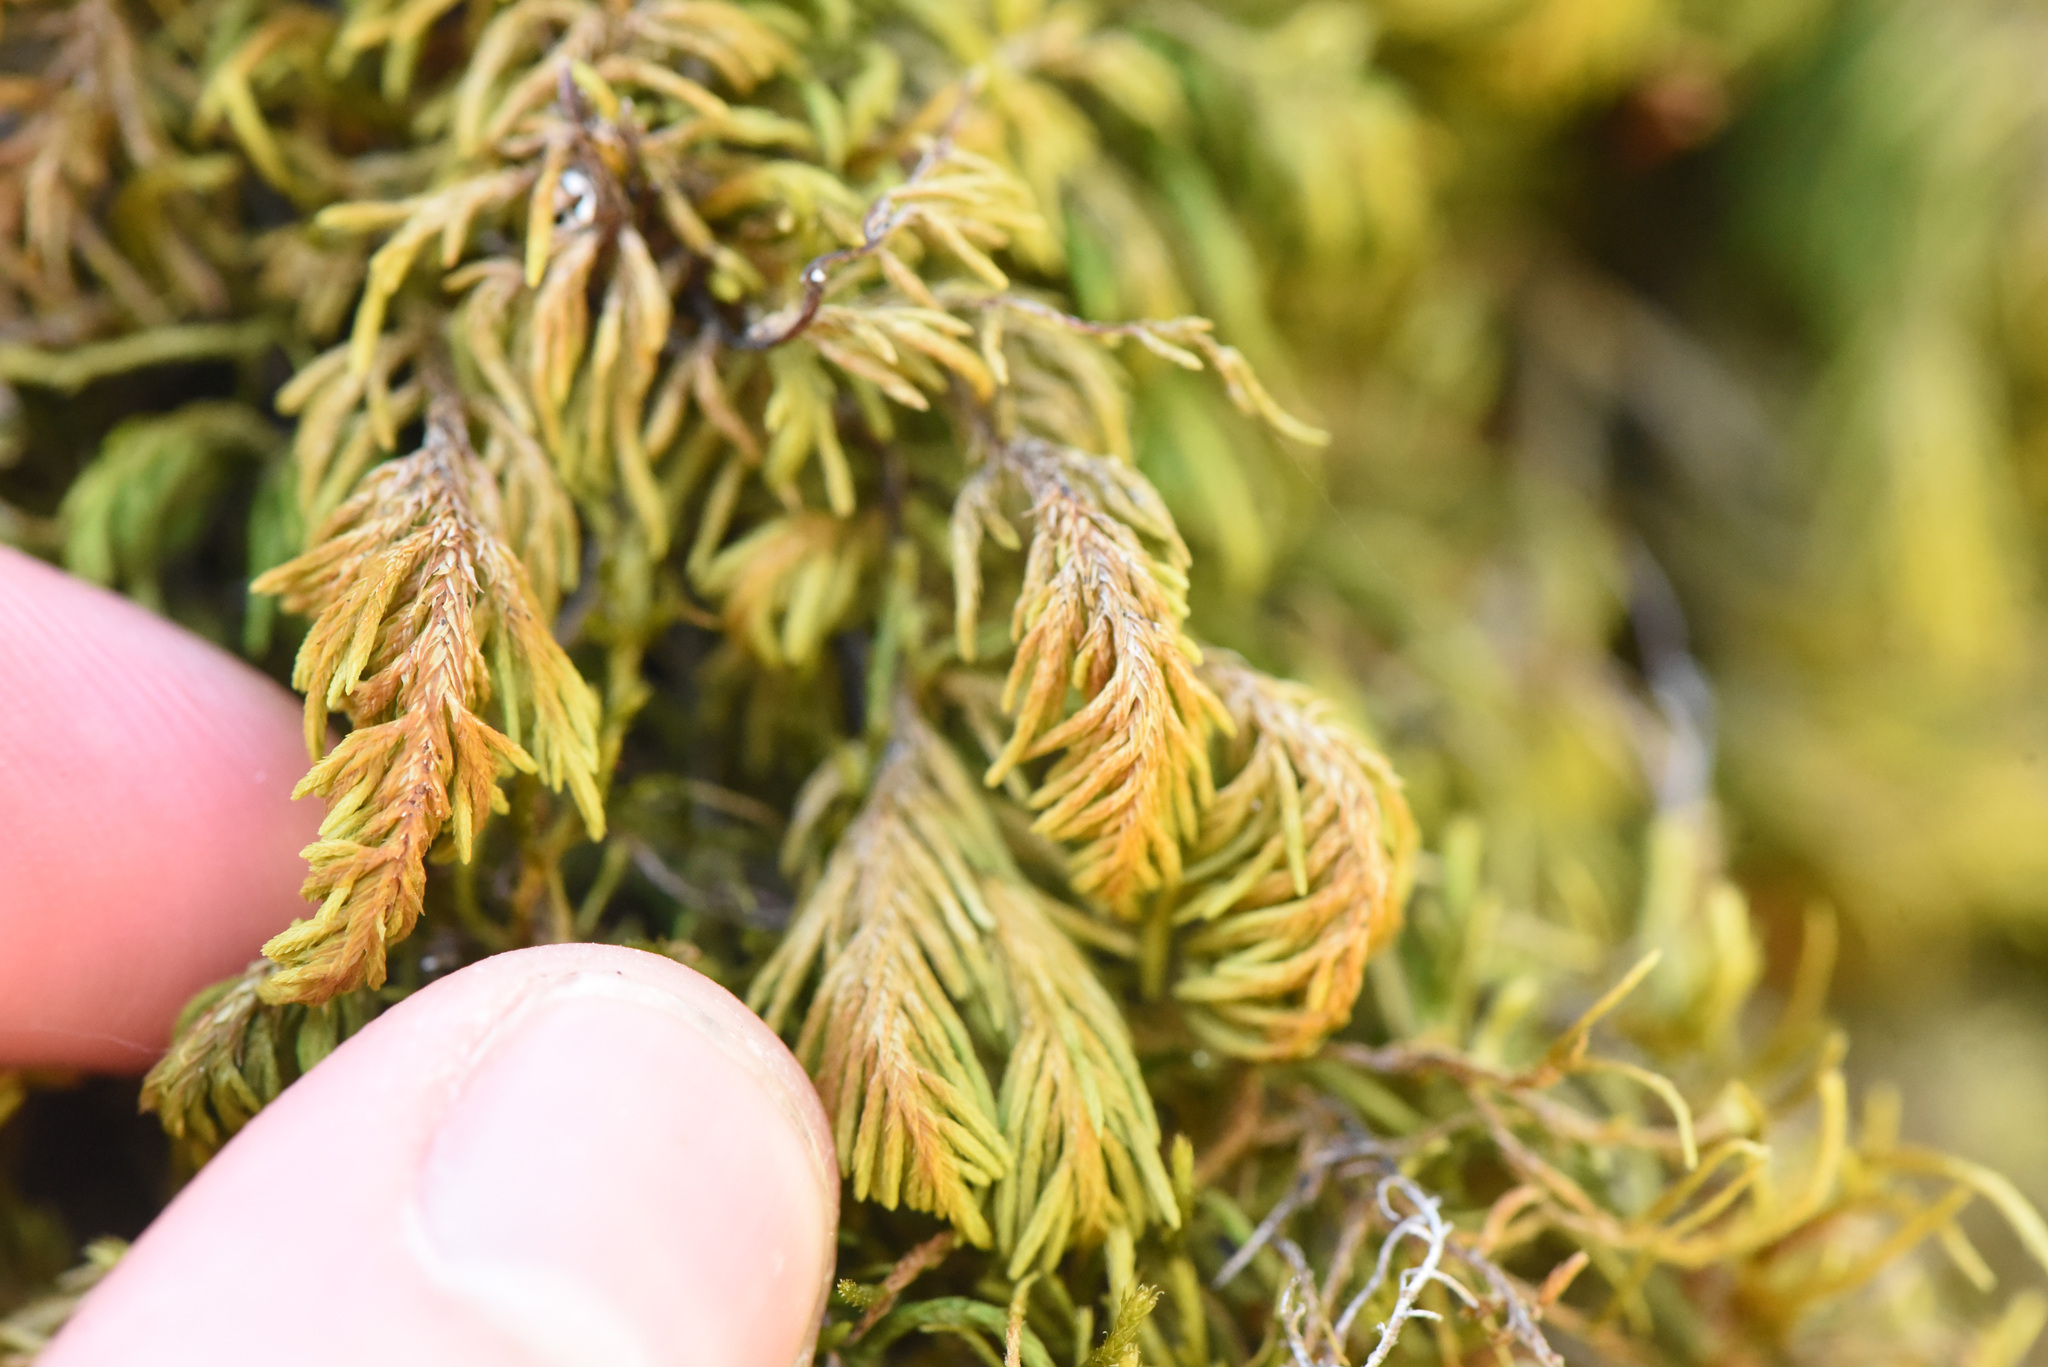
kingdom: Plantae
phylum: Bryophyta
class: Bryopsida
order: Hypnales
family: Cryphaeaceae
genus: Dendroalsia
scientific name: Dendroalsia abietina
